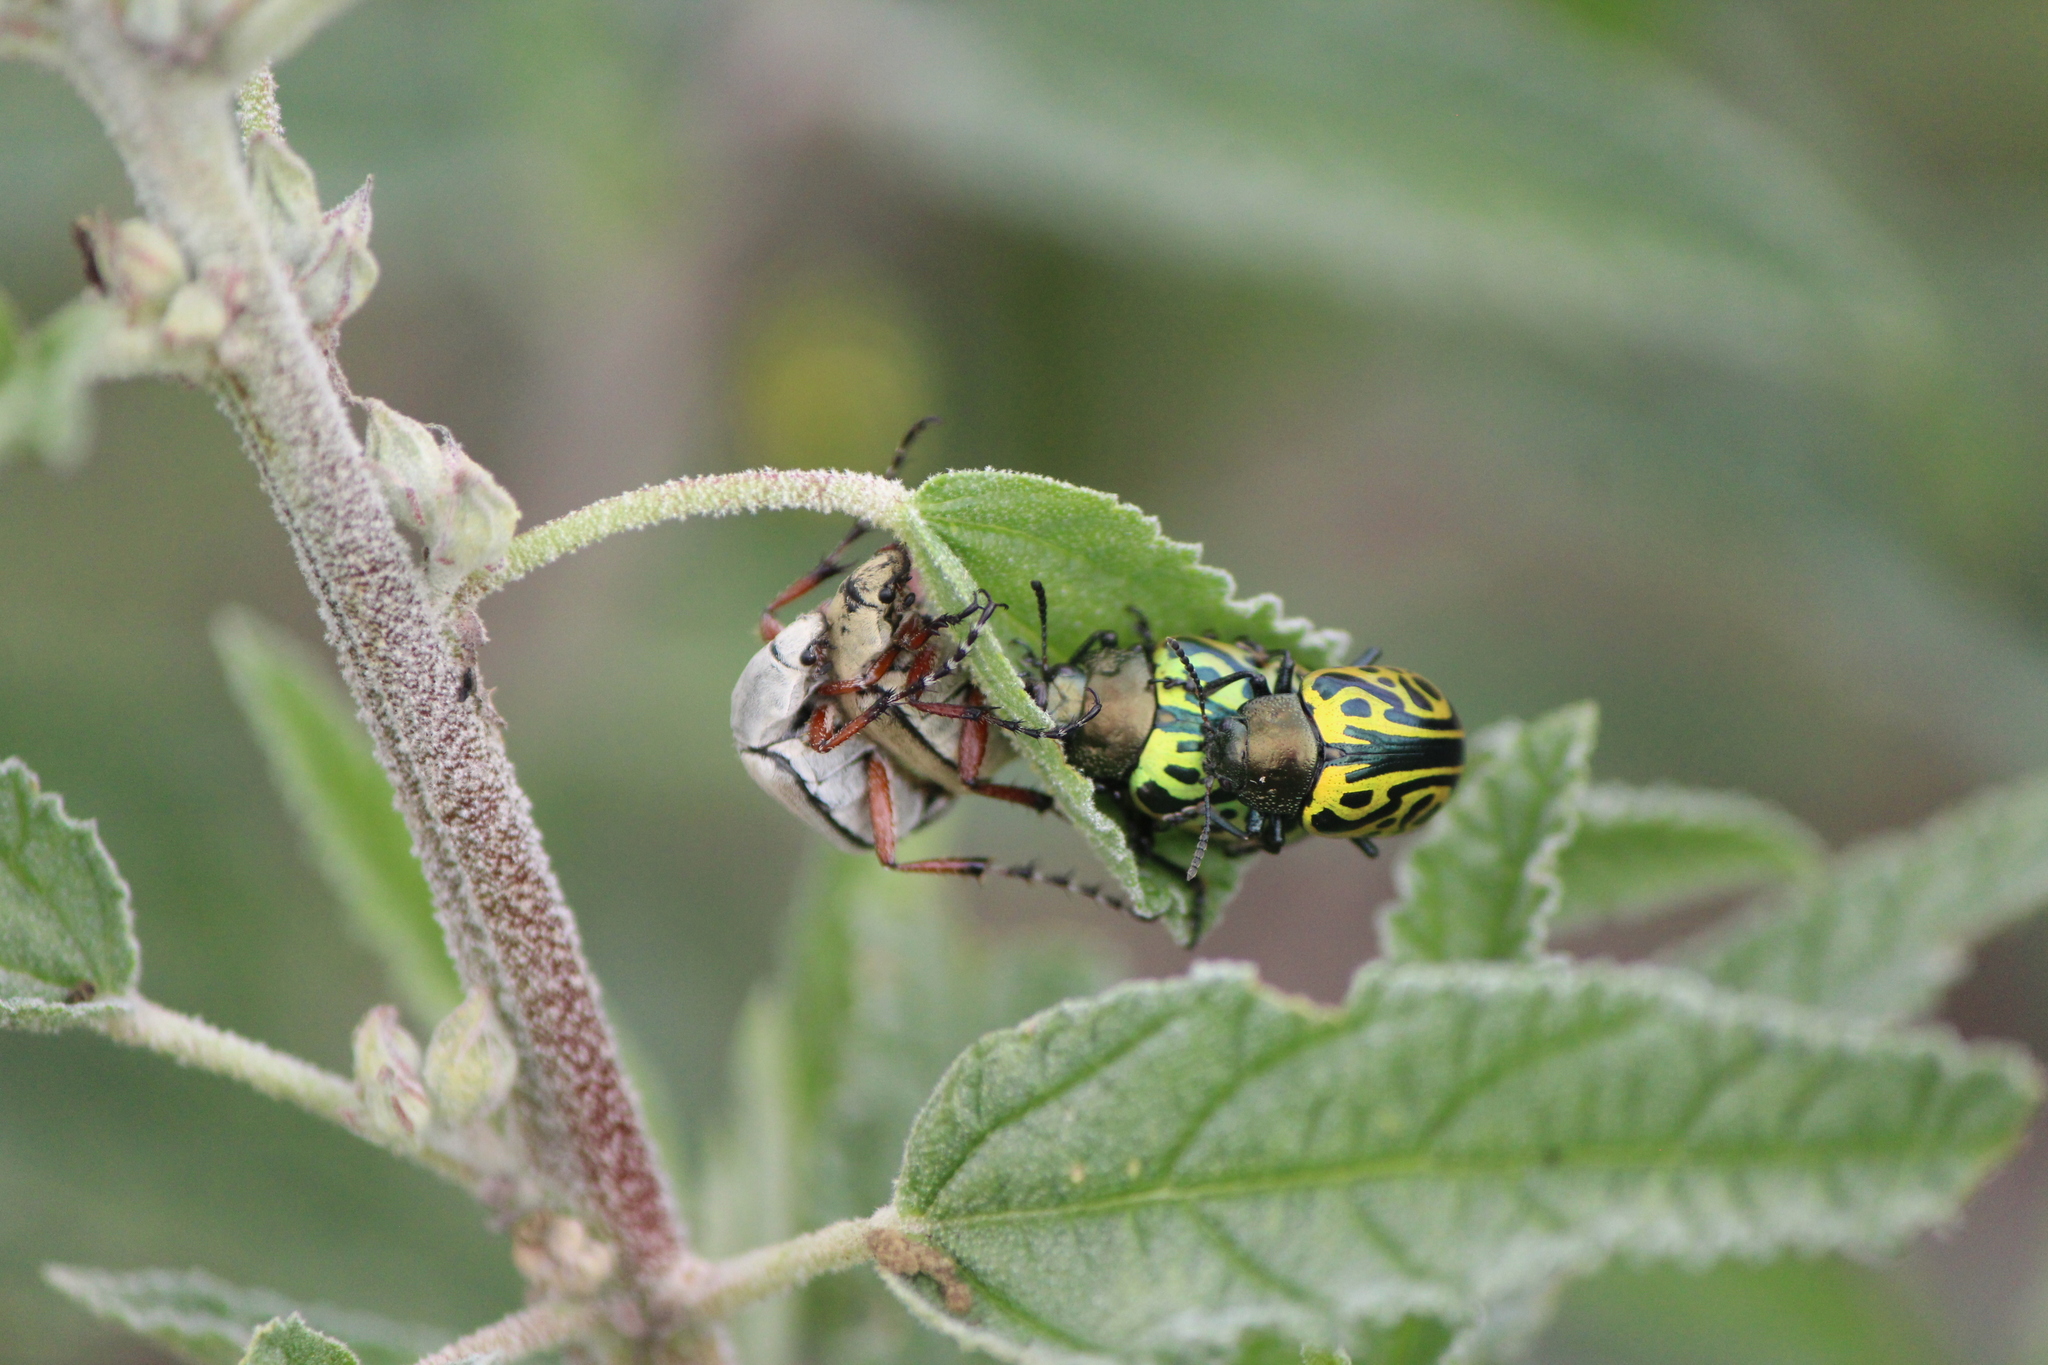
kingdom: Animalia
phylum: Arthropoda
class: Insecta
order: Coleoptera
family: Chrysomelidae
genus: Calligrapha
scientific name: Calligrapha mexicana
